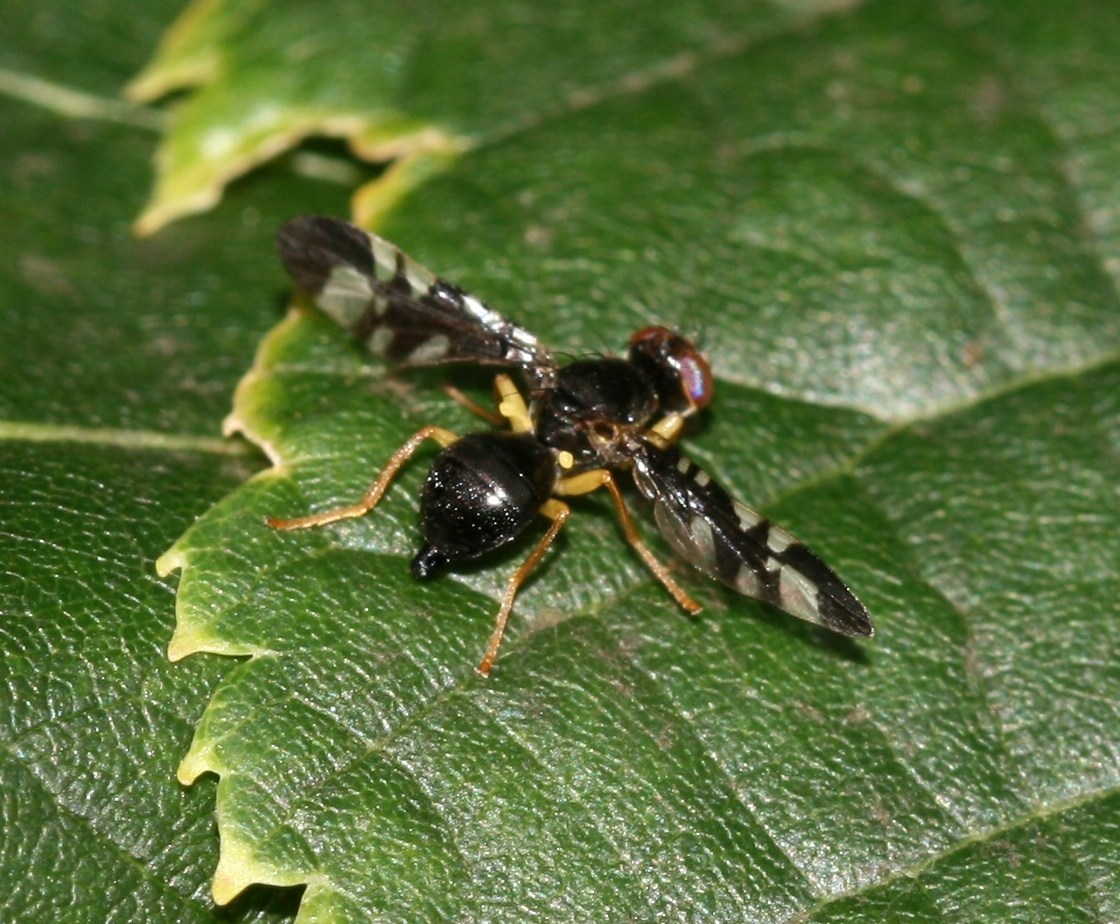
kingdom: Animalia
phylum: Arthropoda
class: Insecta
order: Diptera
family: Tephritidae
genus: Euleia
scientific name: Euleia rotundiventris
